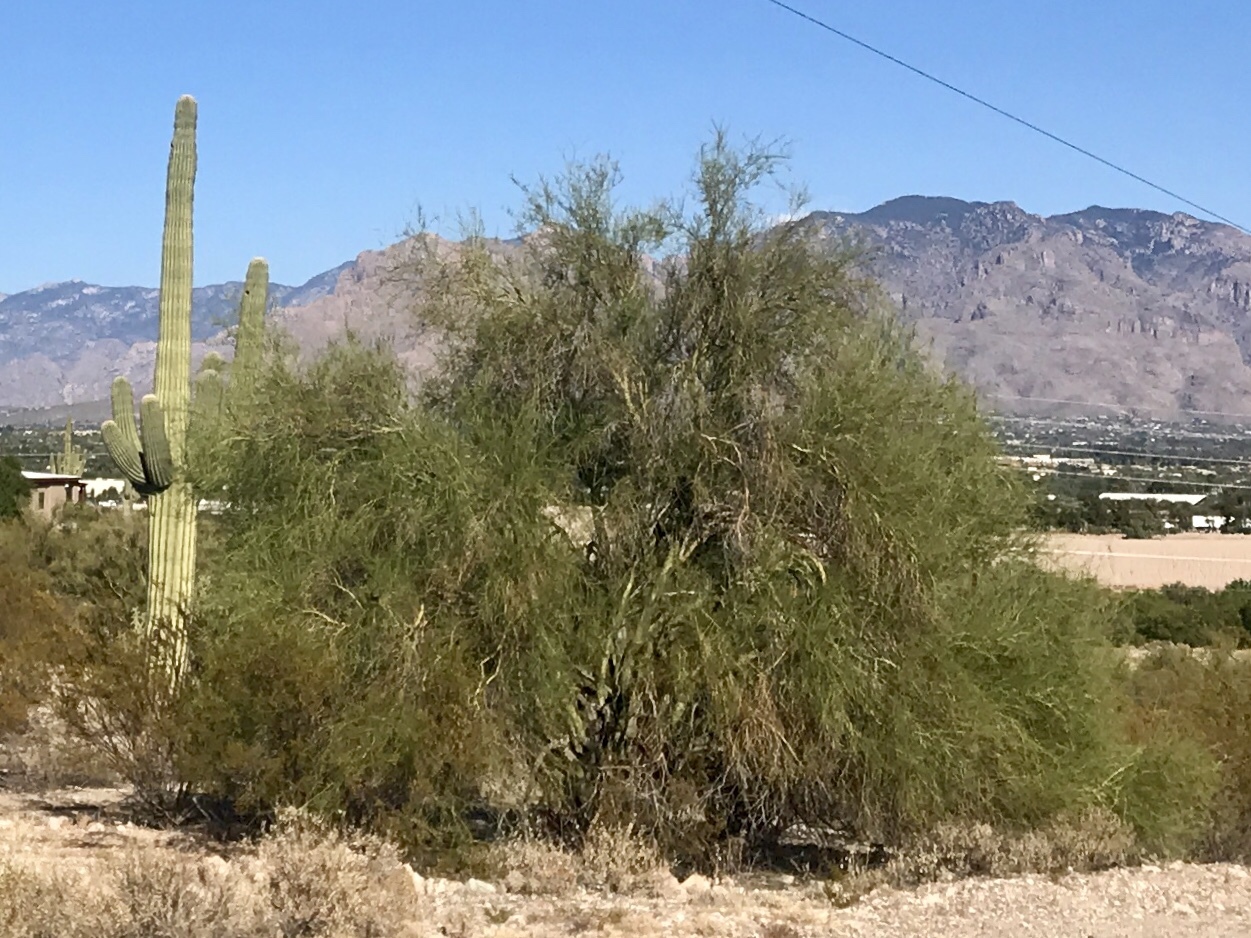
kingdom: Plantae
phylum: Tracheophyta
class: Magnoliopsida
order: Fabales
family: Fabaceae
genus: Parkinsonia
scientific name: Parkinsonia florida
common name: Blue paloverde
